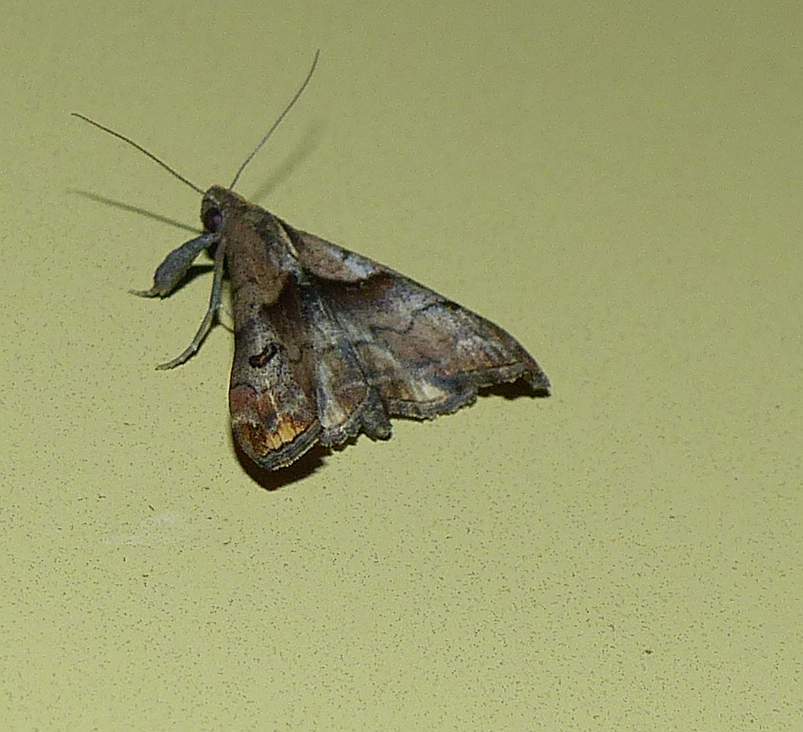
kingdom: Animalia
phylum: Arthropoda
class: Insecta
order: Lepidoptera
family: Erebidae
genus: Palthis
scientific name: Palthis angulalis
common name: Dark-spotted palthis moth
